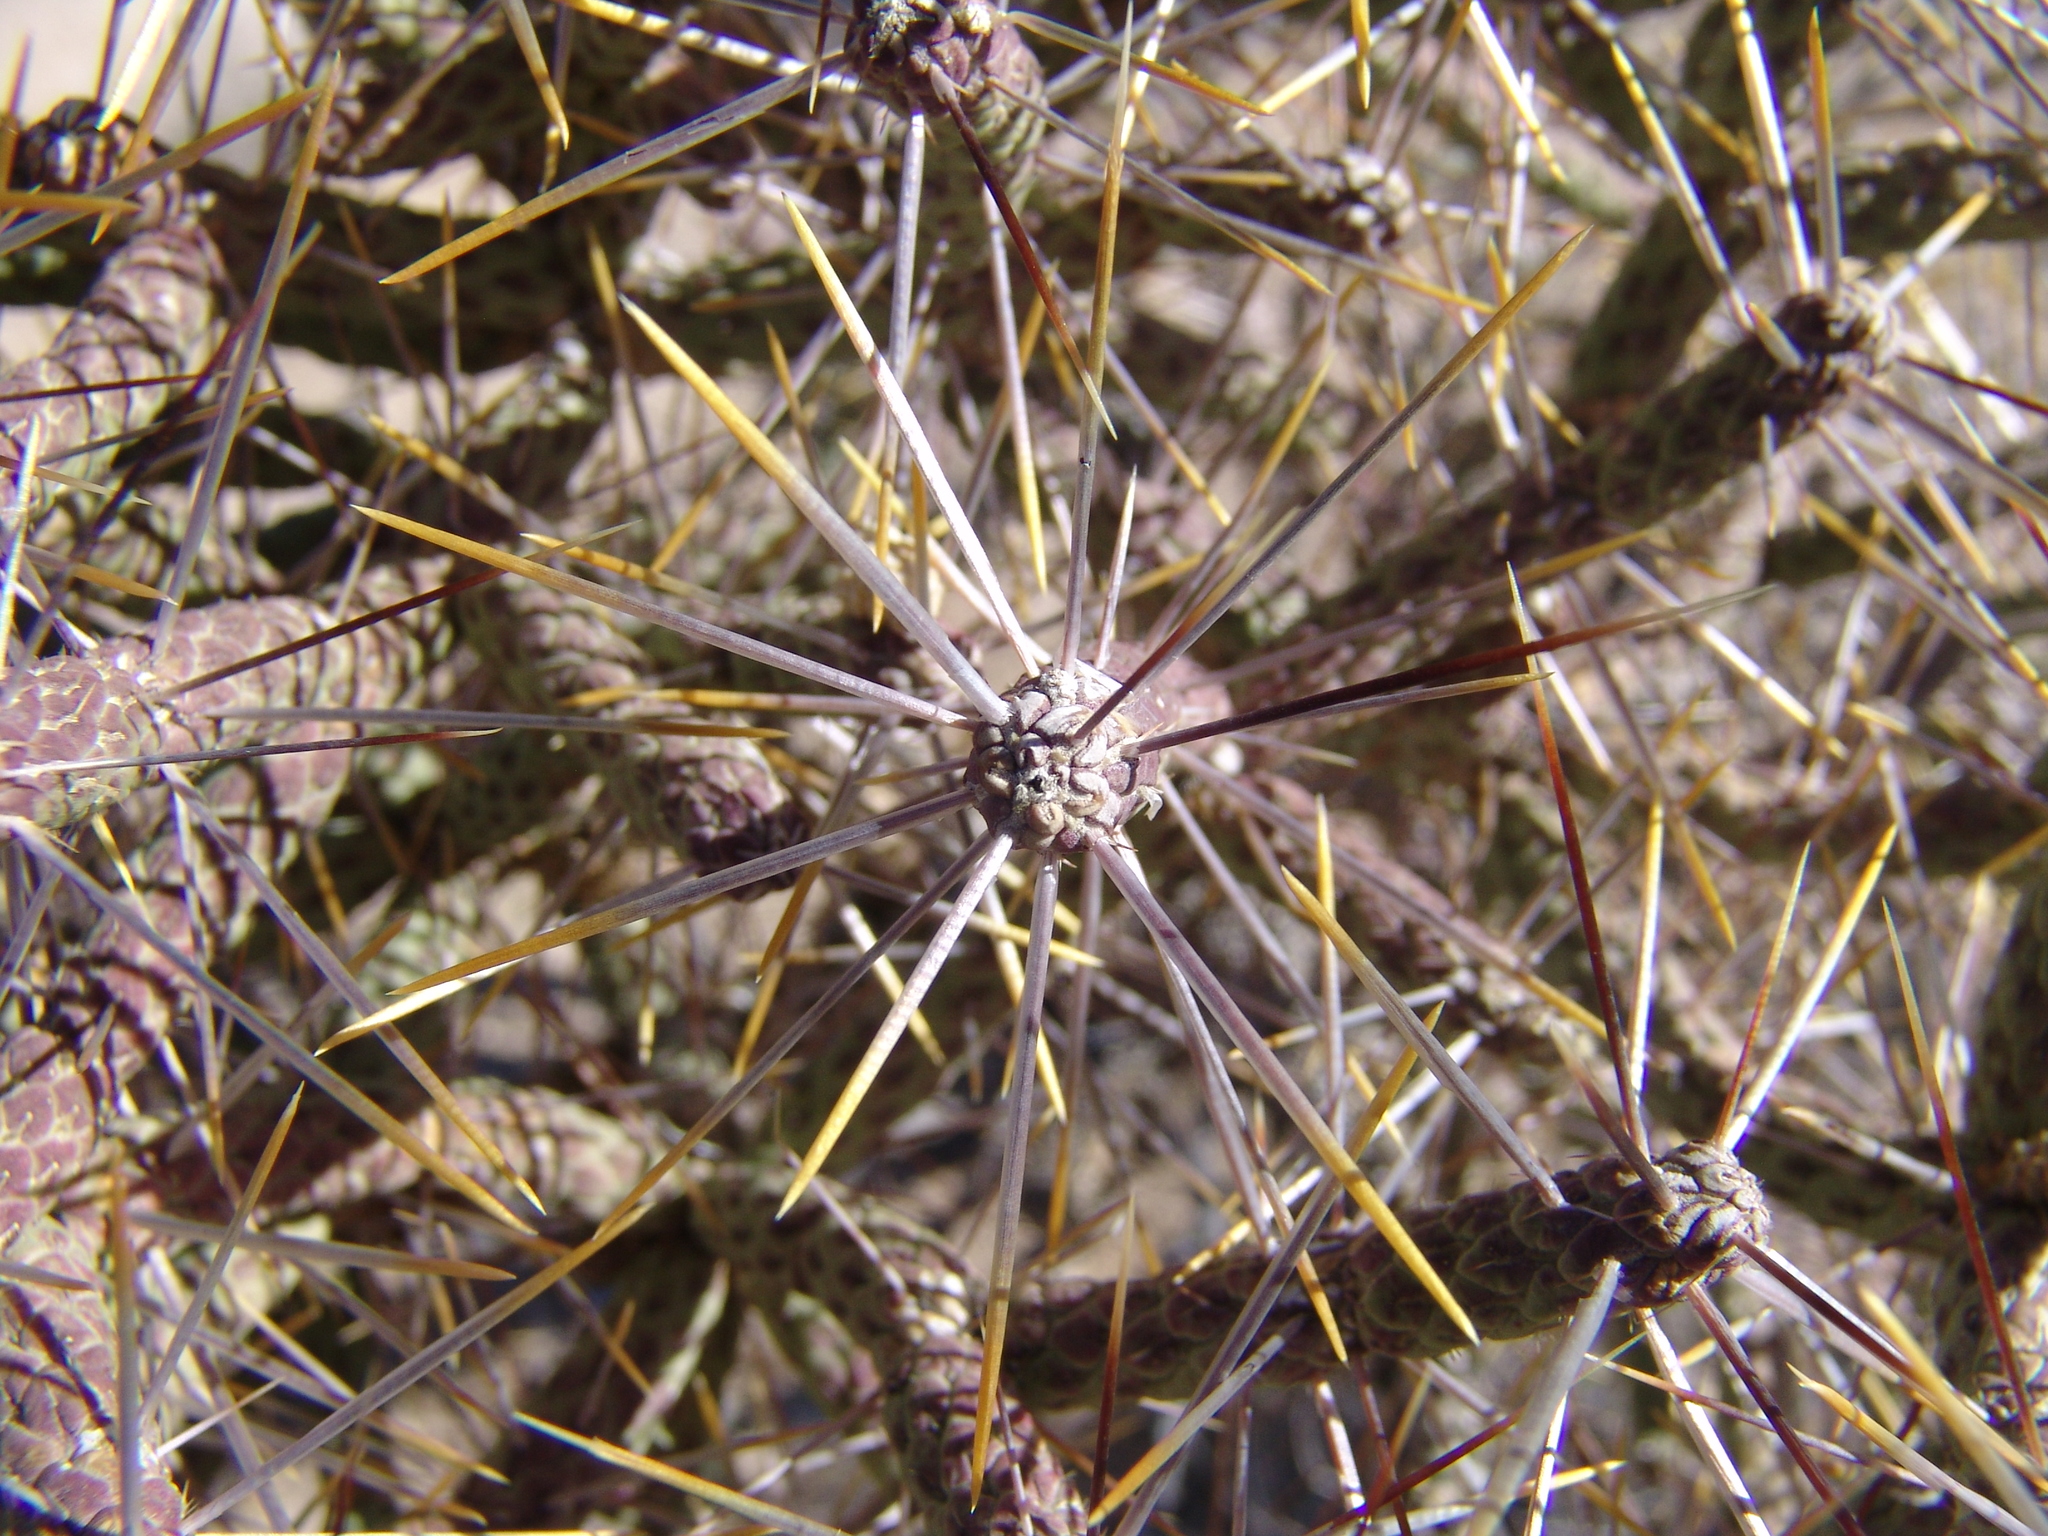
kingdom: Plantae
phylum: Tracheophyta
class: Magnoliopsida
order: Caryophyllales
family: Cactaceae
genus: Cylindropuntia
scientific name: Cylindropuntia ramosissima
